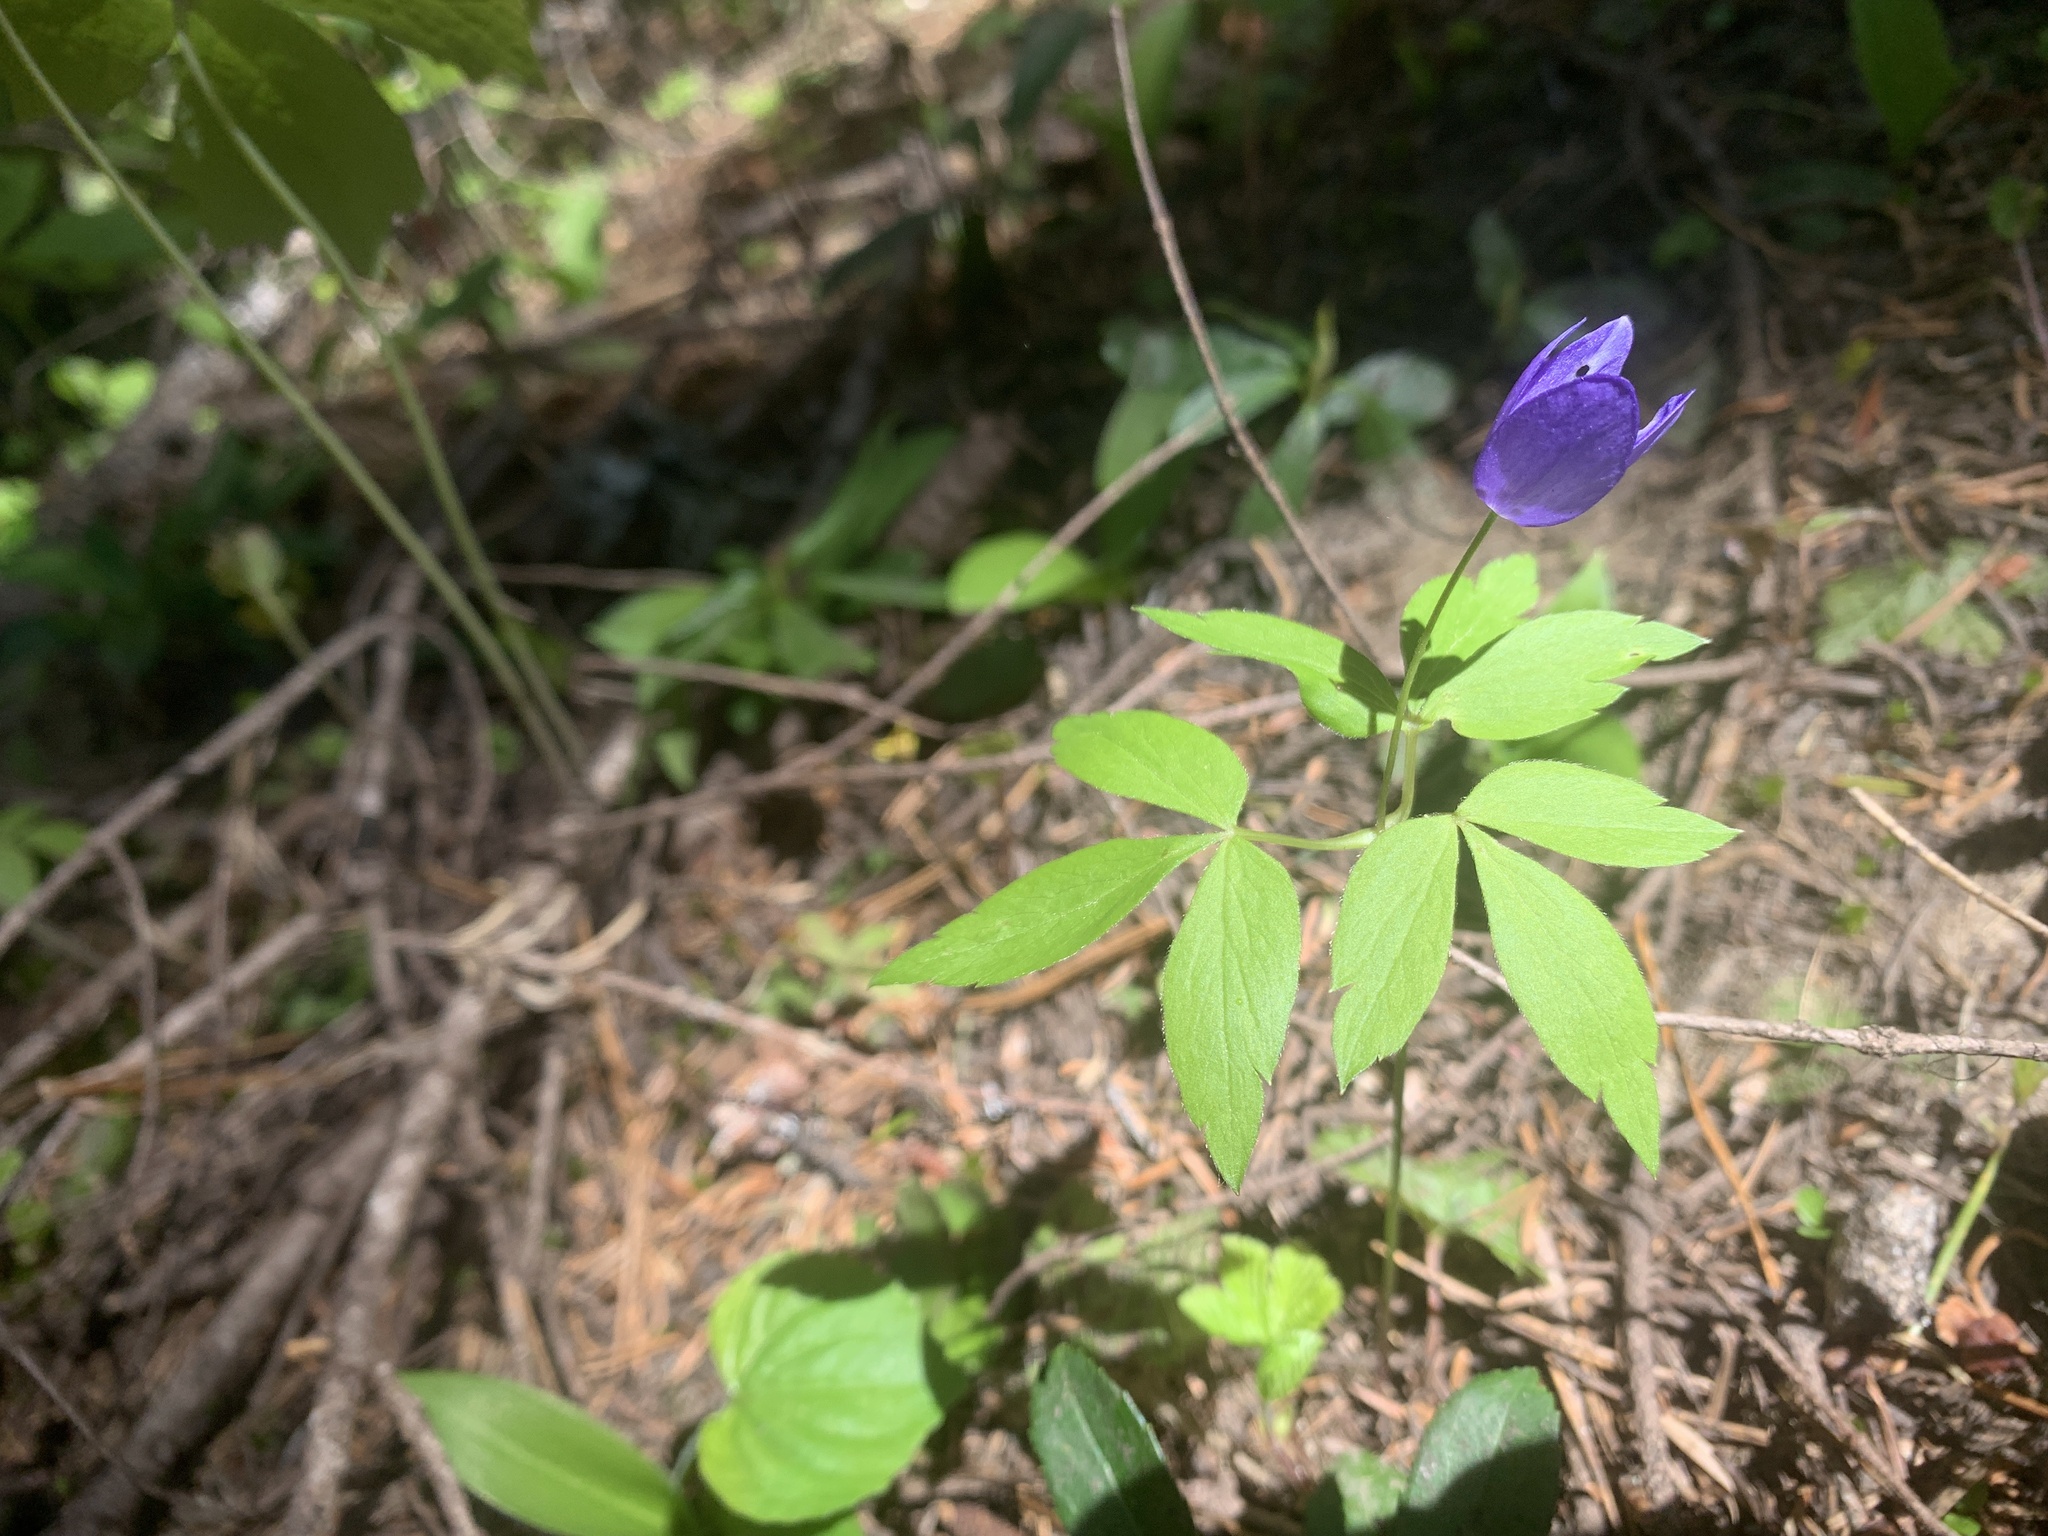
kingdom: Plantae
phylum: Tracheophyta
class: Magnoliopsida
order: Ranunculales
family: Ranunculaceae
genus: Anemone
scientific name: Anemone oregana
